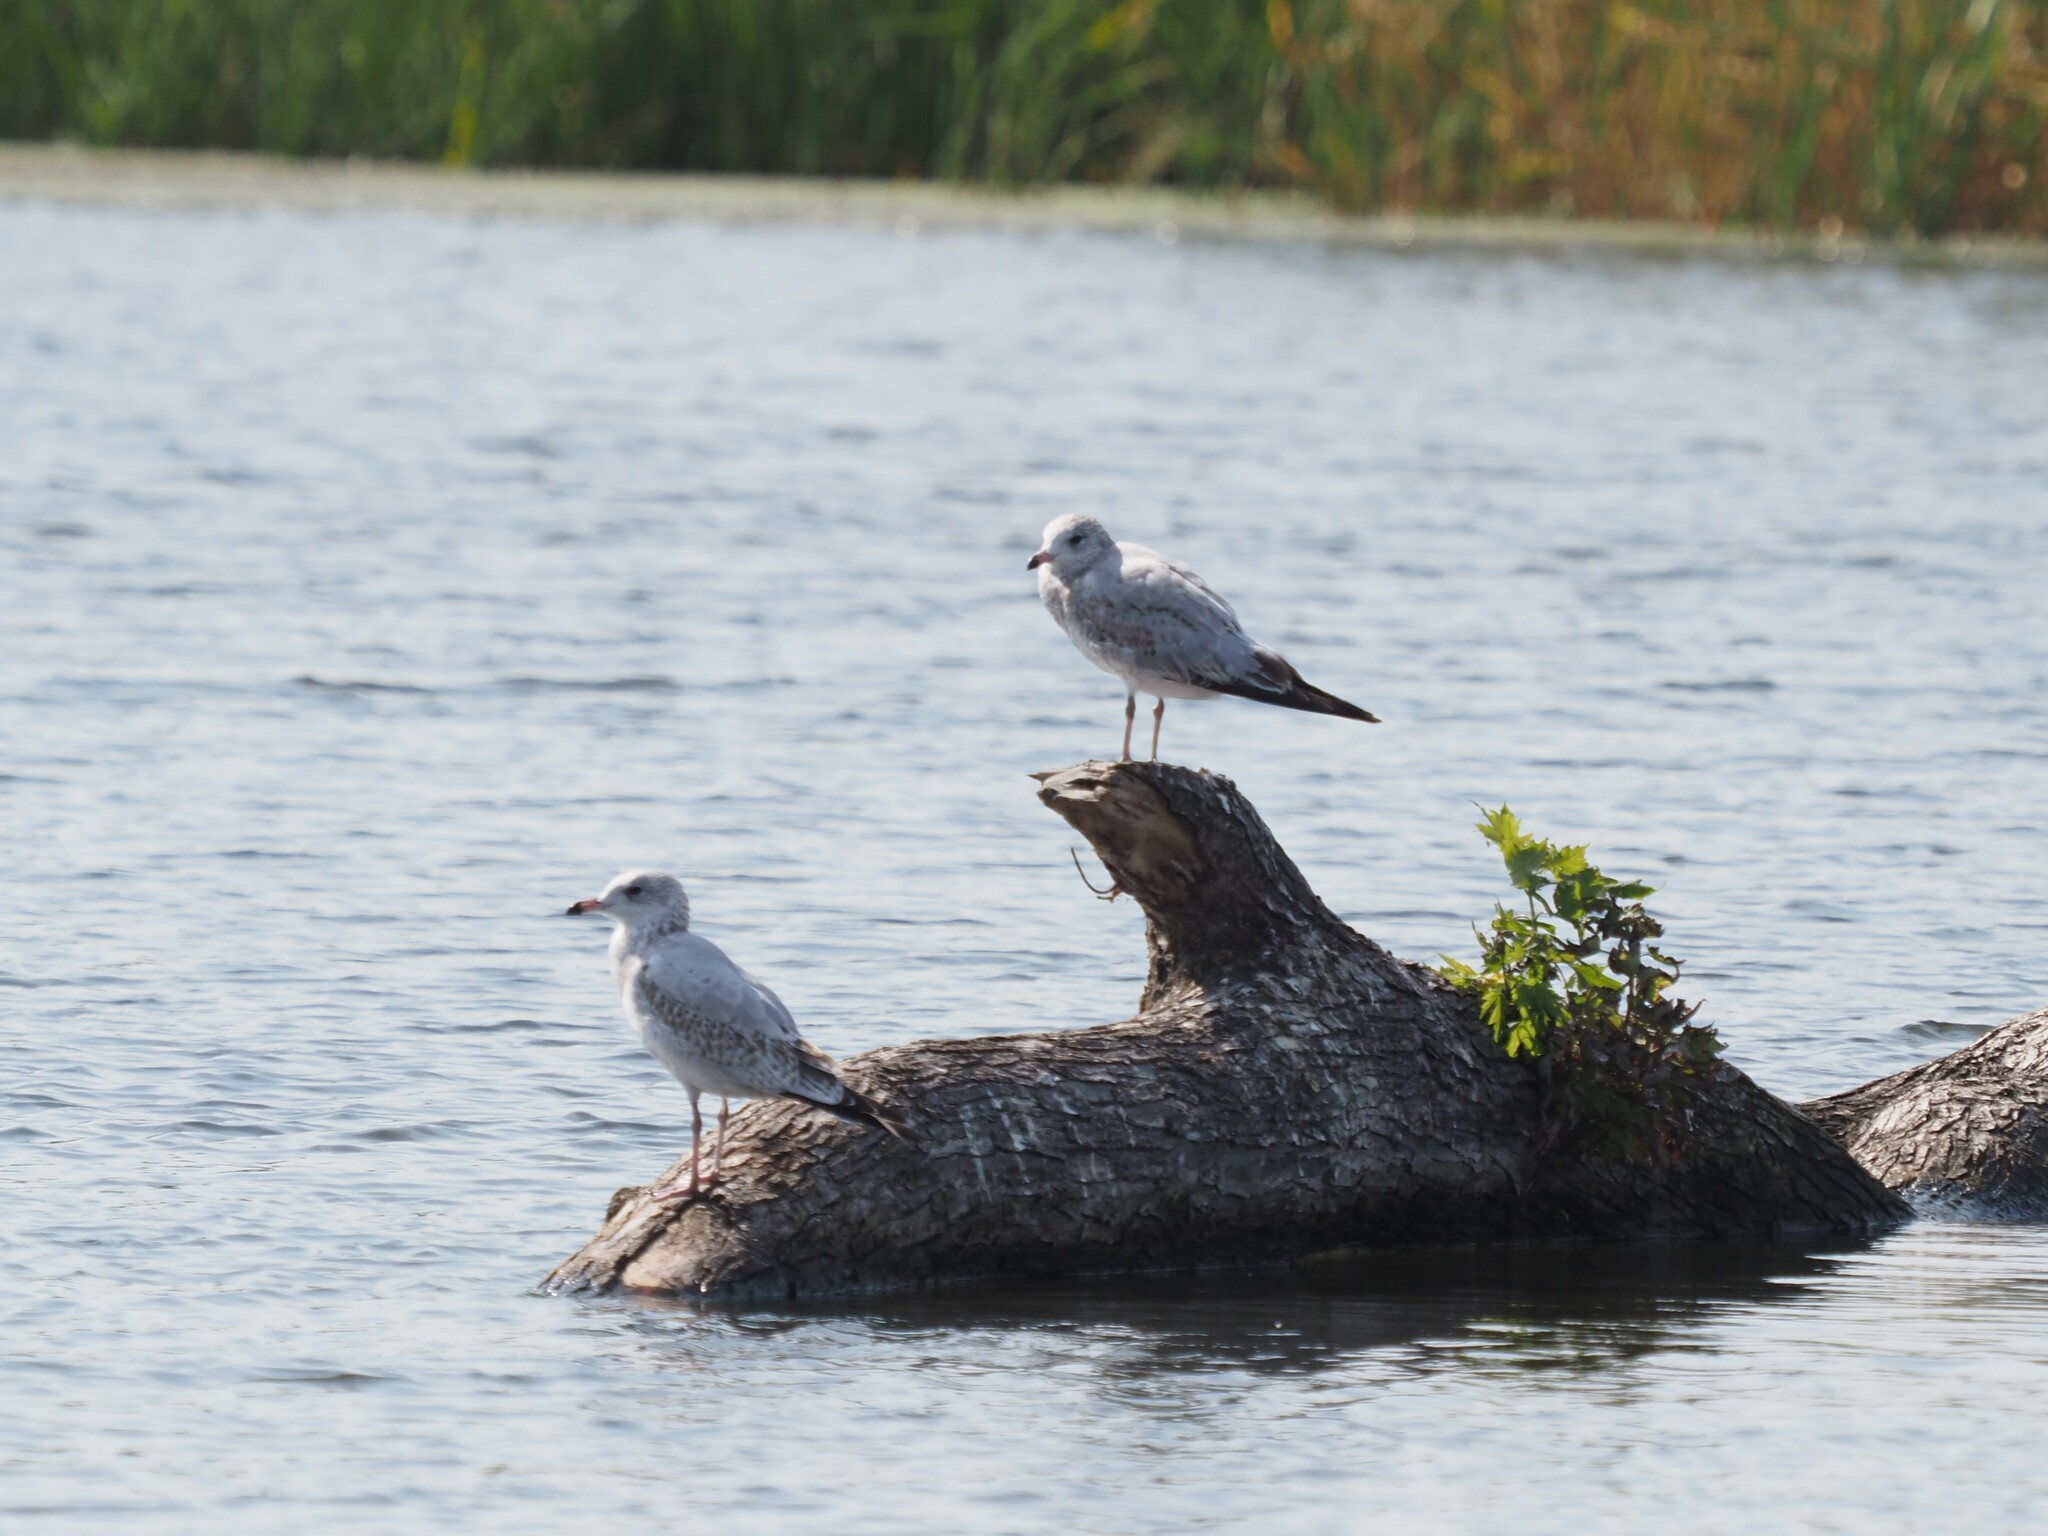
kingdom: Animalia
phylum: Chordata
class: Aves
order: Charadriiformes
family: Laridae
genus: Larus
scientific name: Larus delawarensis
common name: Ring-billed gull
